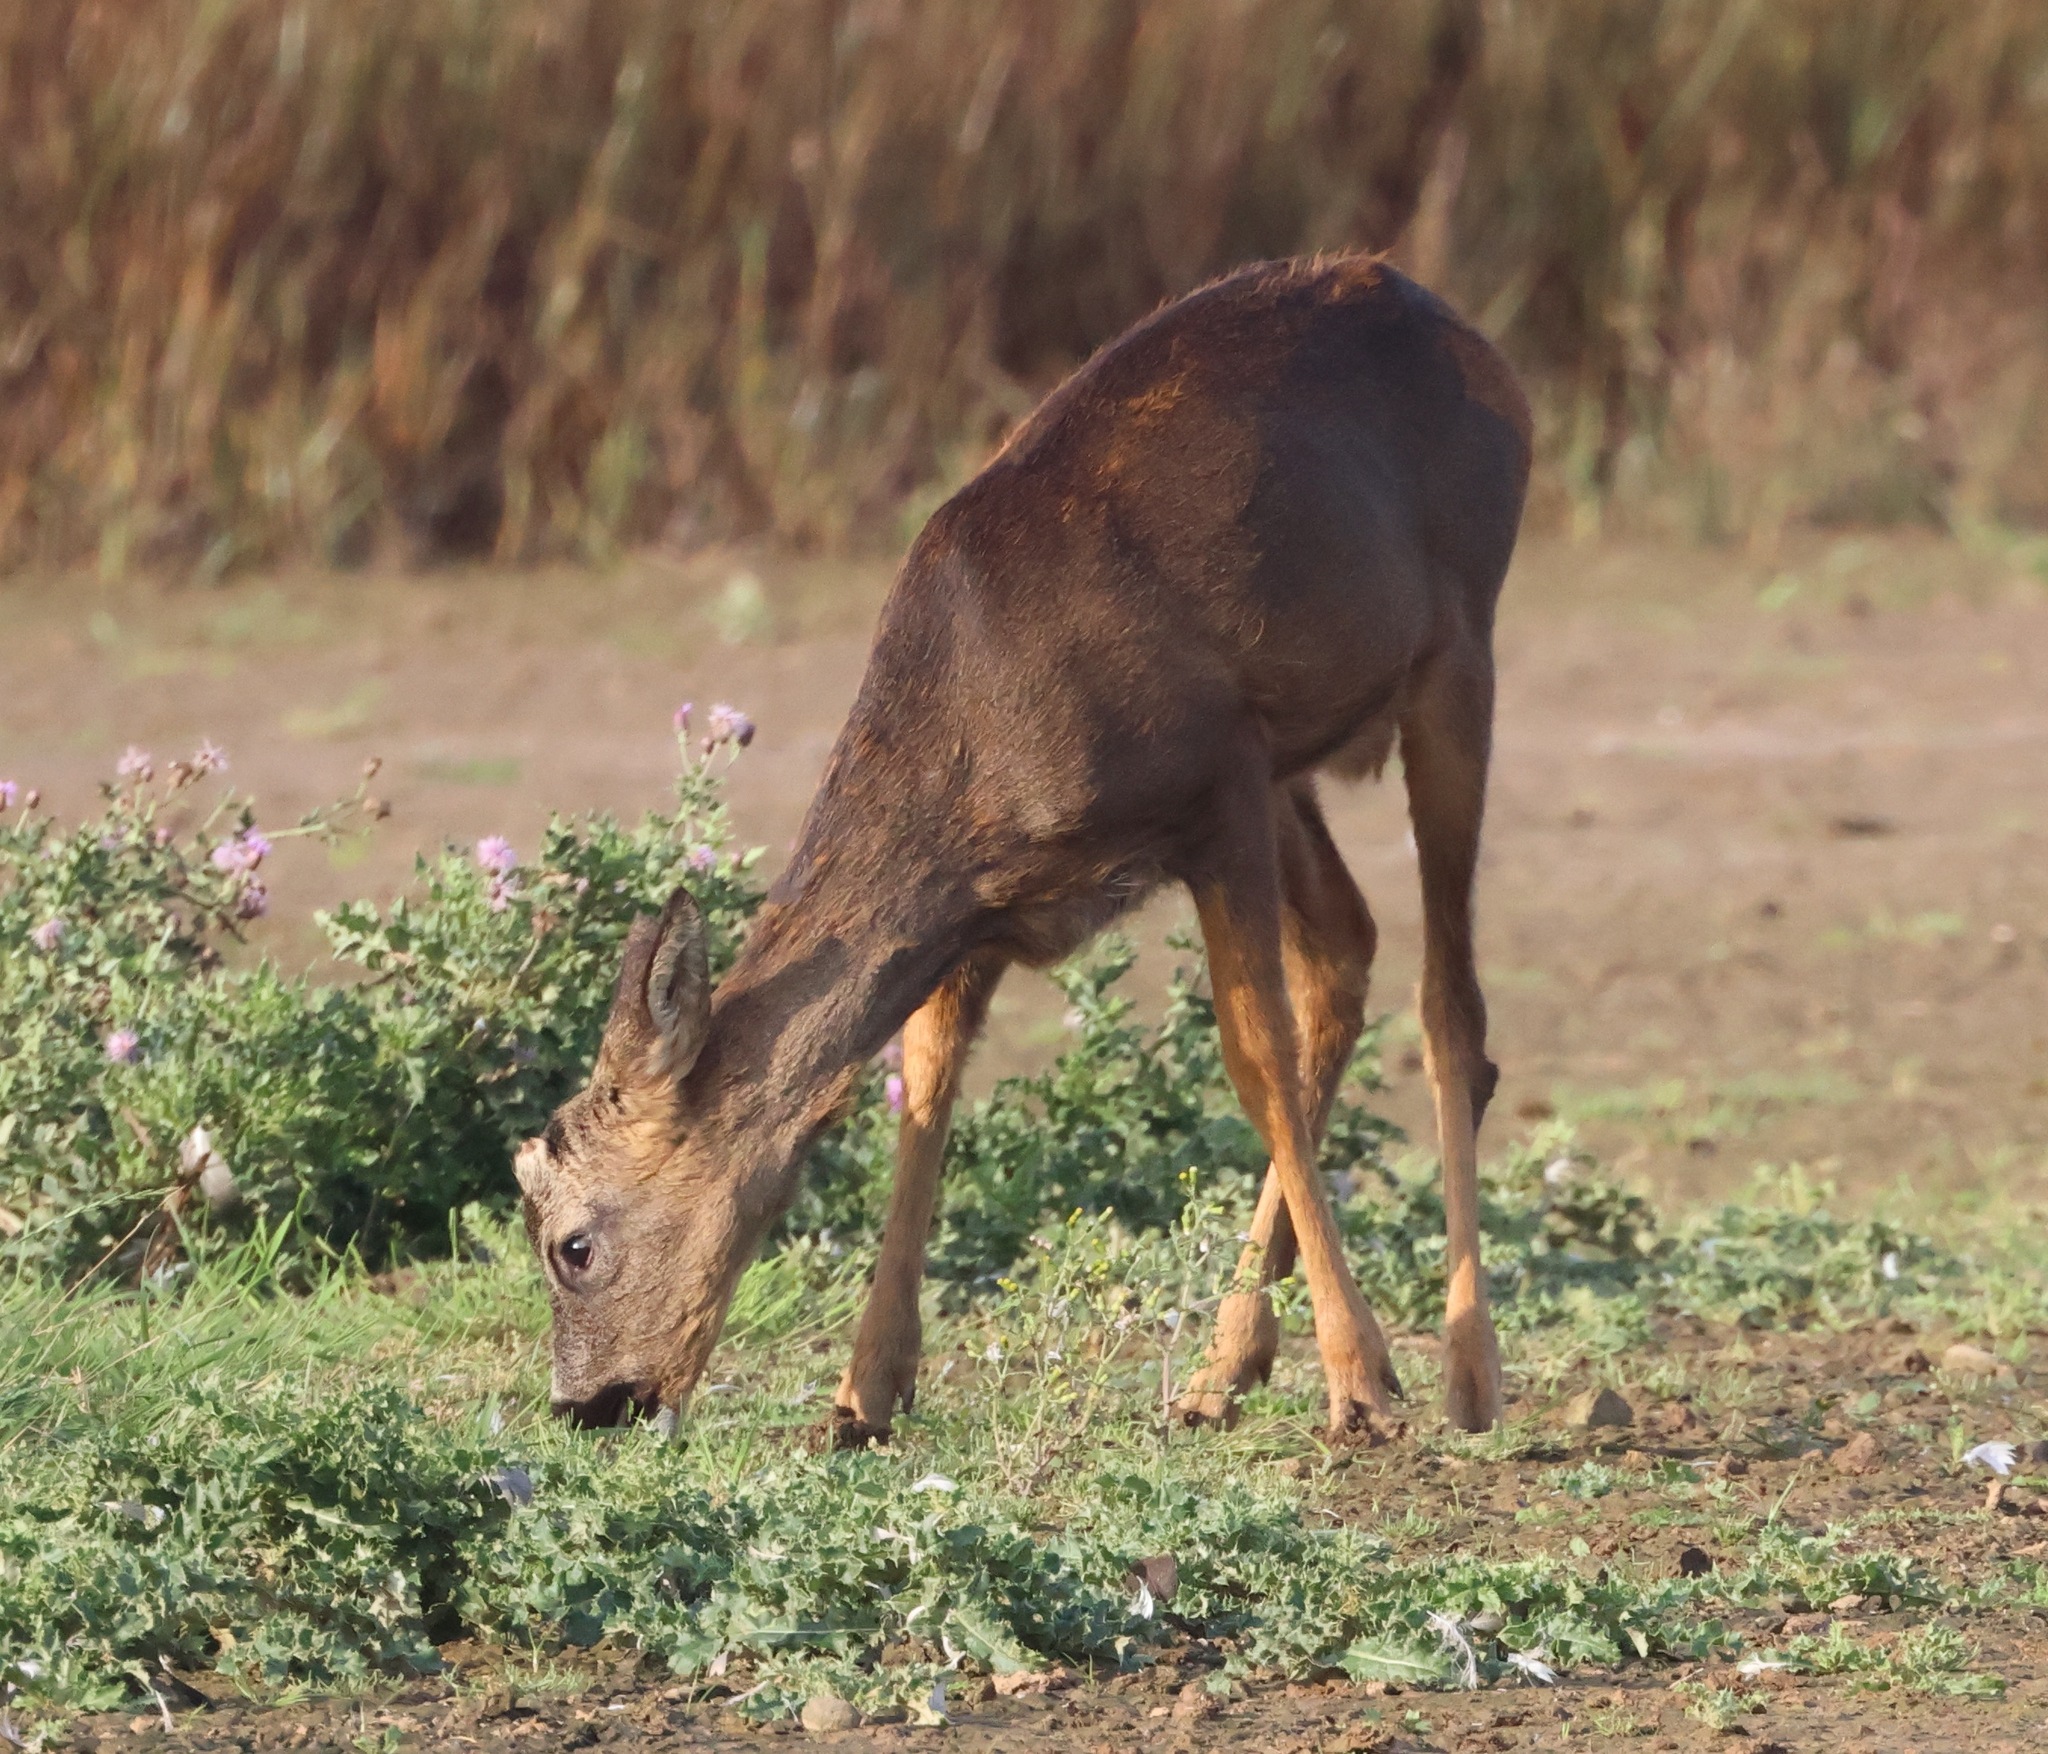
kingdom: Animalia
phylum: Chordata
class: Mammalia
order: Artiodactyla
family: Cervidae
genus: Capreolus
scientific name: Capreolus capreolus
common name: Western roe deer
